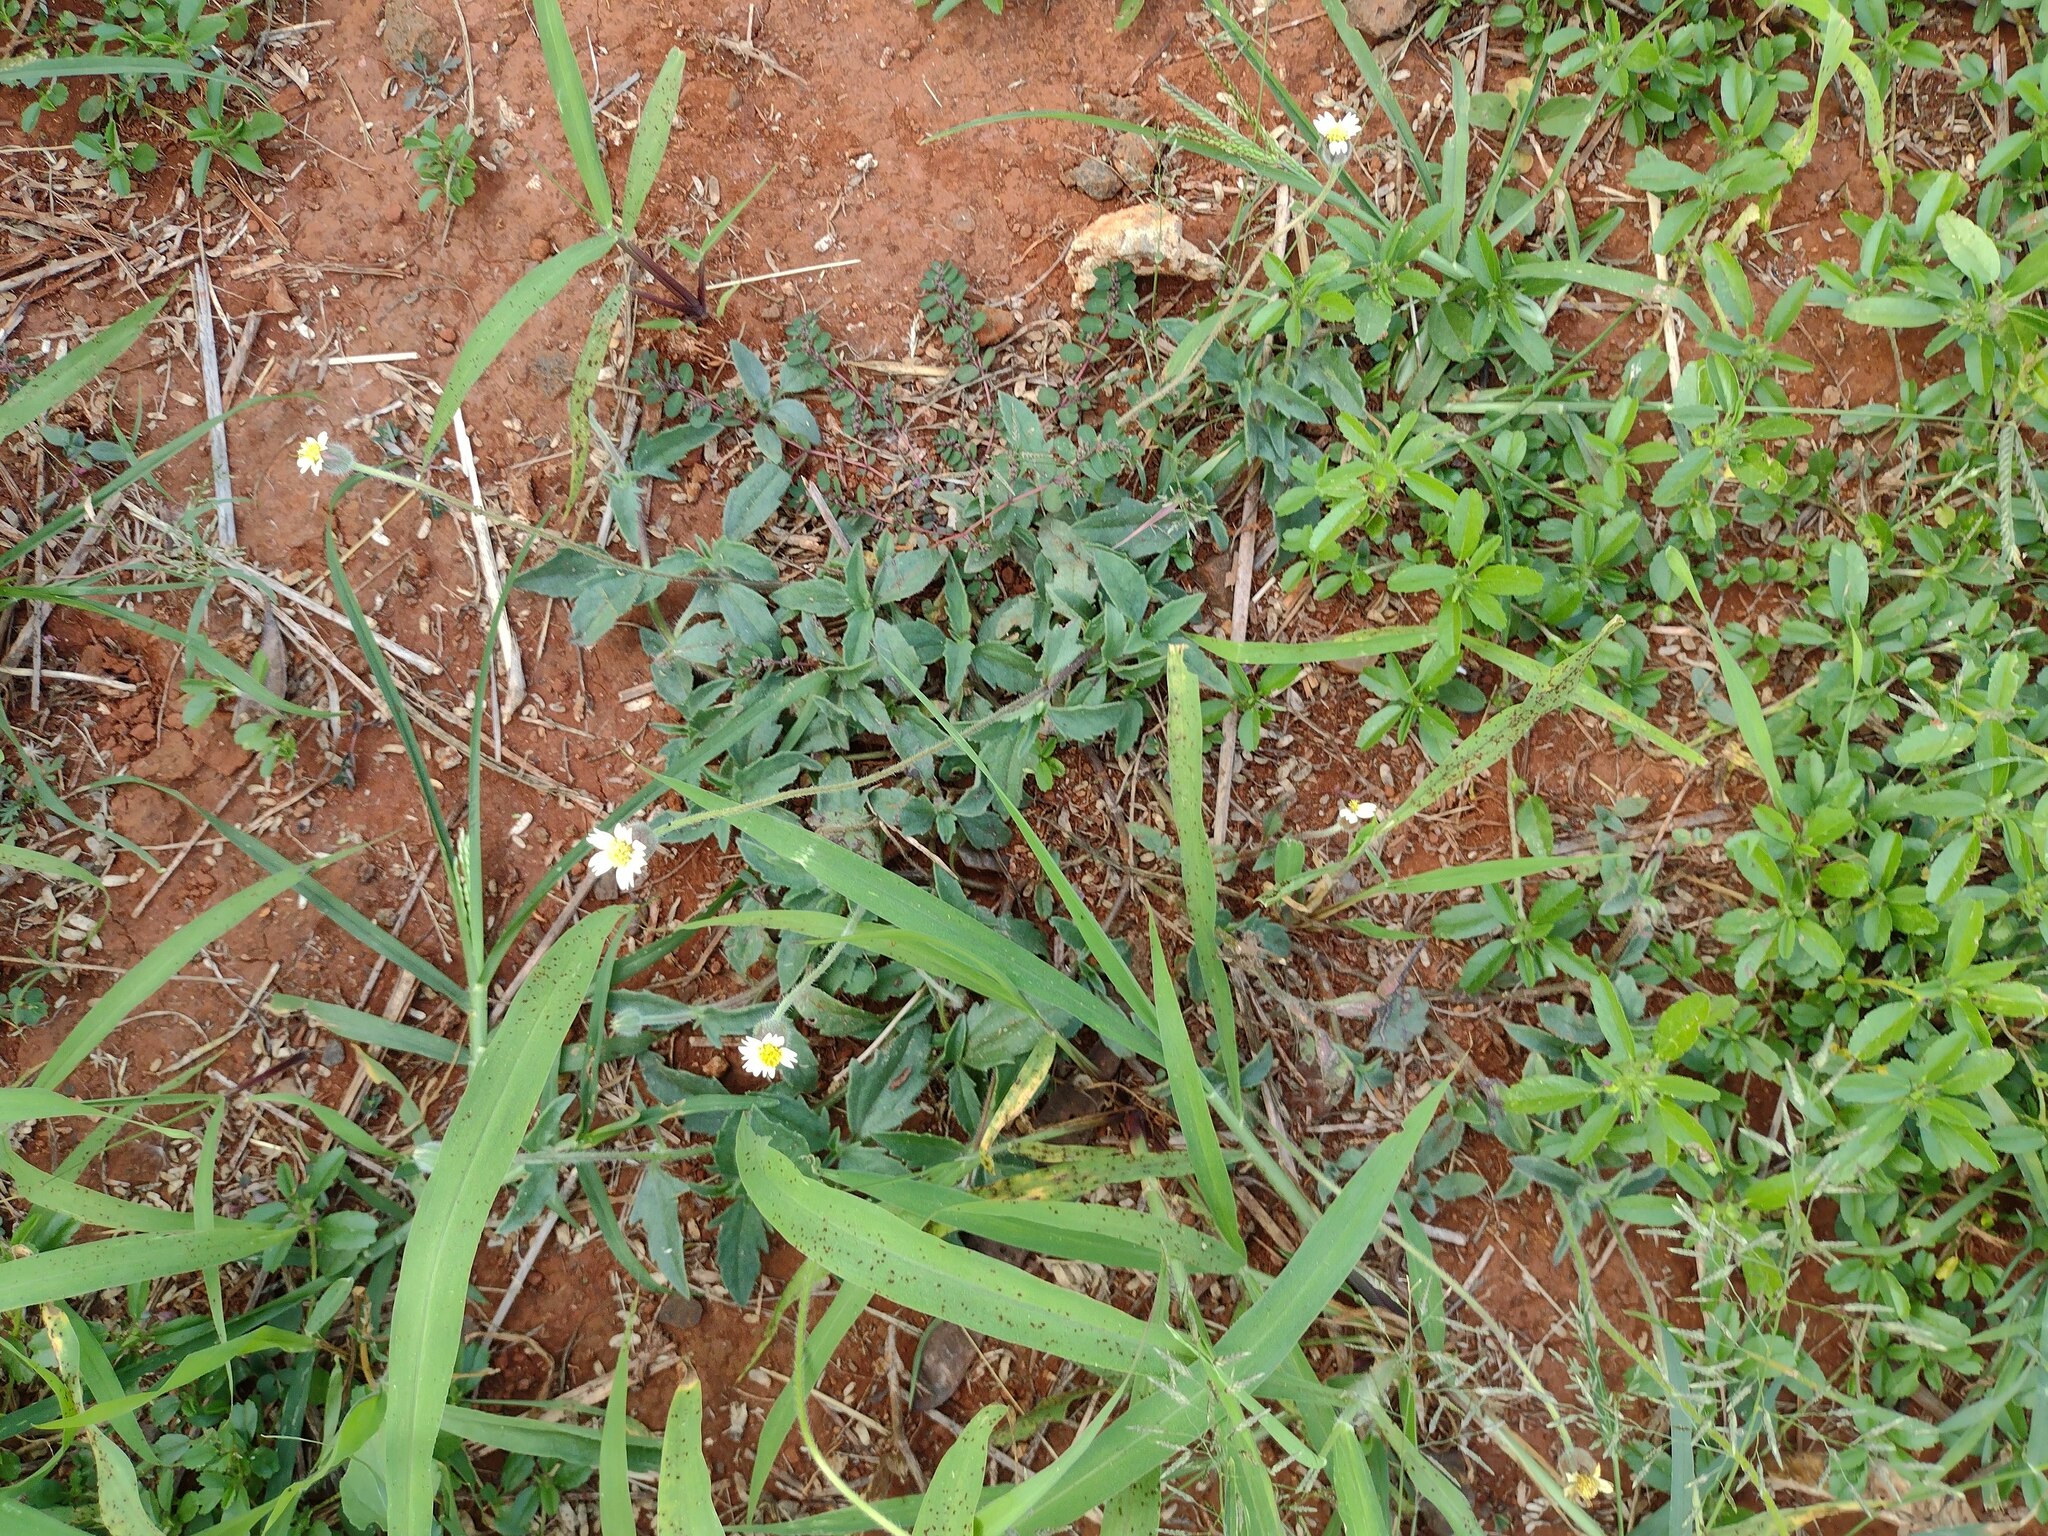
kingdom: Plantae
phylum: Tracheophyta
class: Magnoliopsida
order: Asterales
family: Asteraceae
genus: Tridax
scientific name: Tridax procumbens
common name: Coatbuttons
